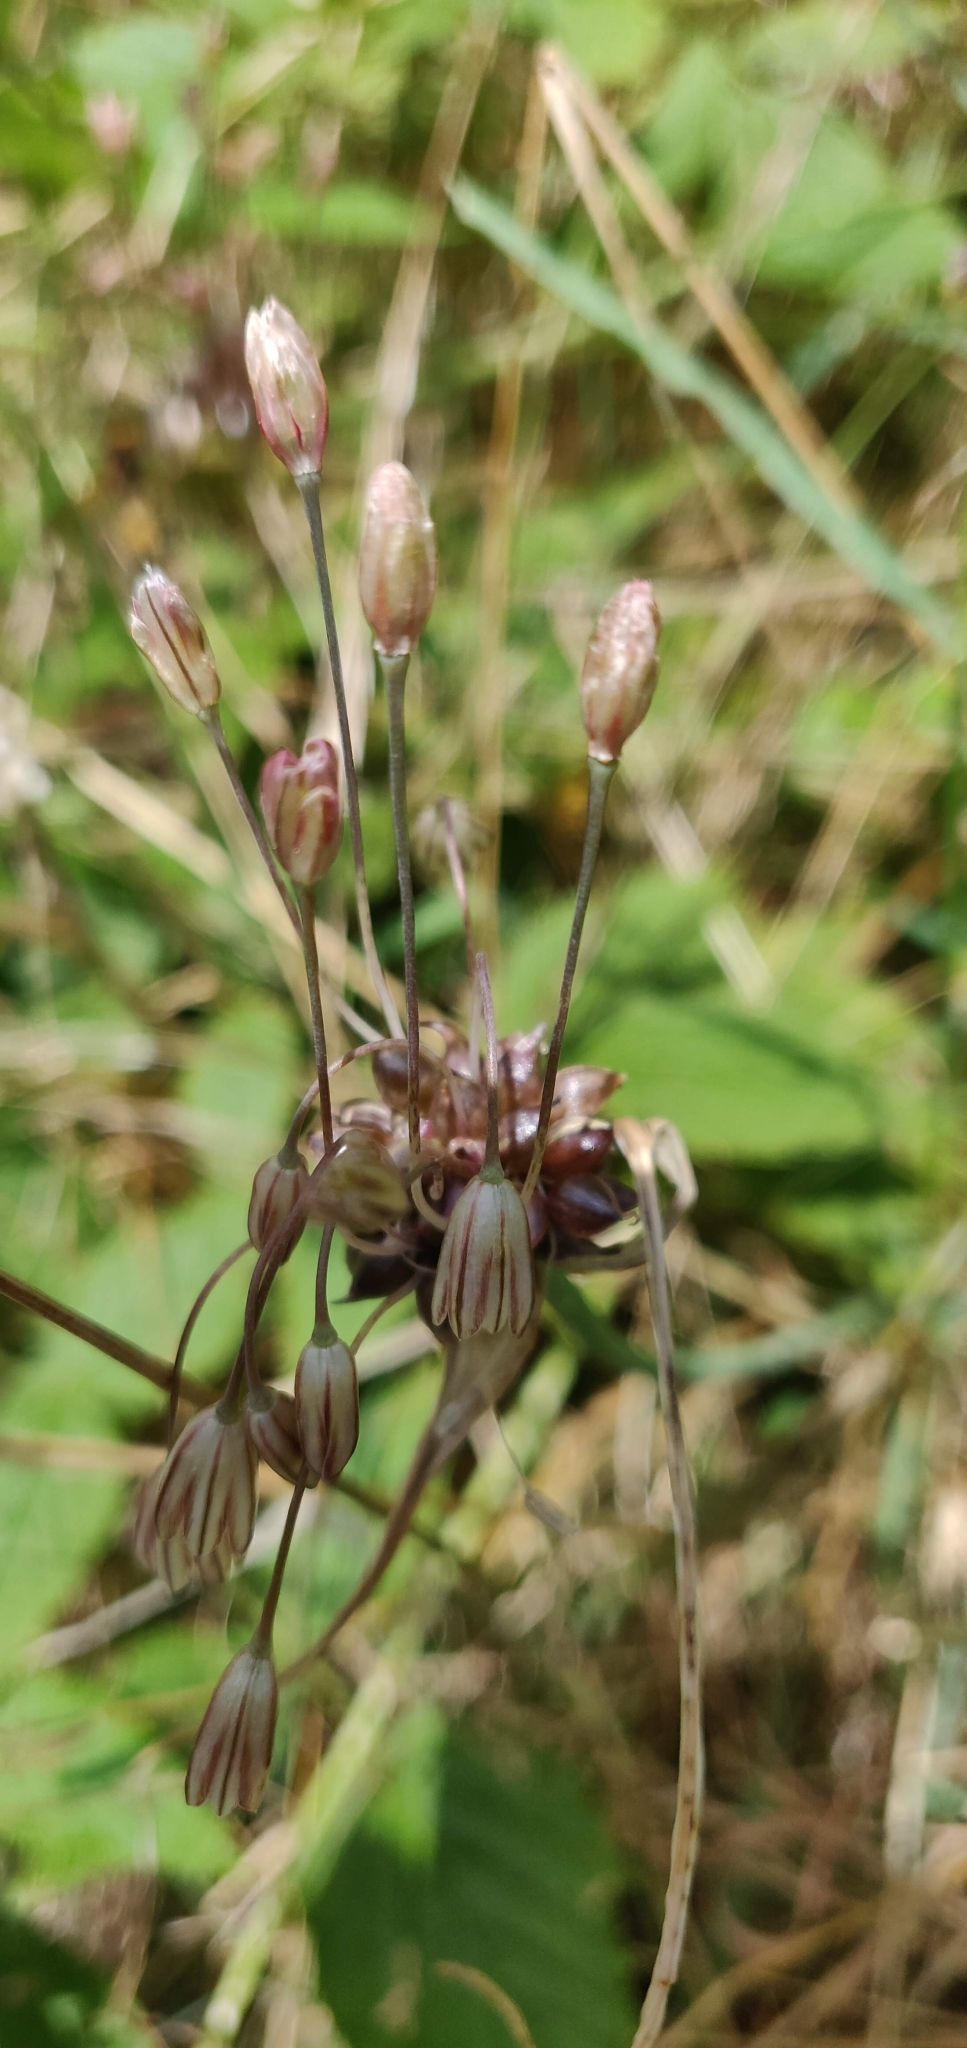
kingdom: Plantae
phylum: Tracheophyta
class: Liliopsida
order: Asparagales
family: Amaryllidaceae
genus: Allium
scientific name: Allium oleraceum
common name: Field garlic
